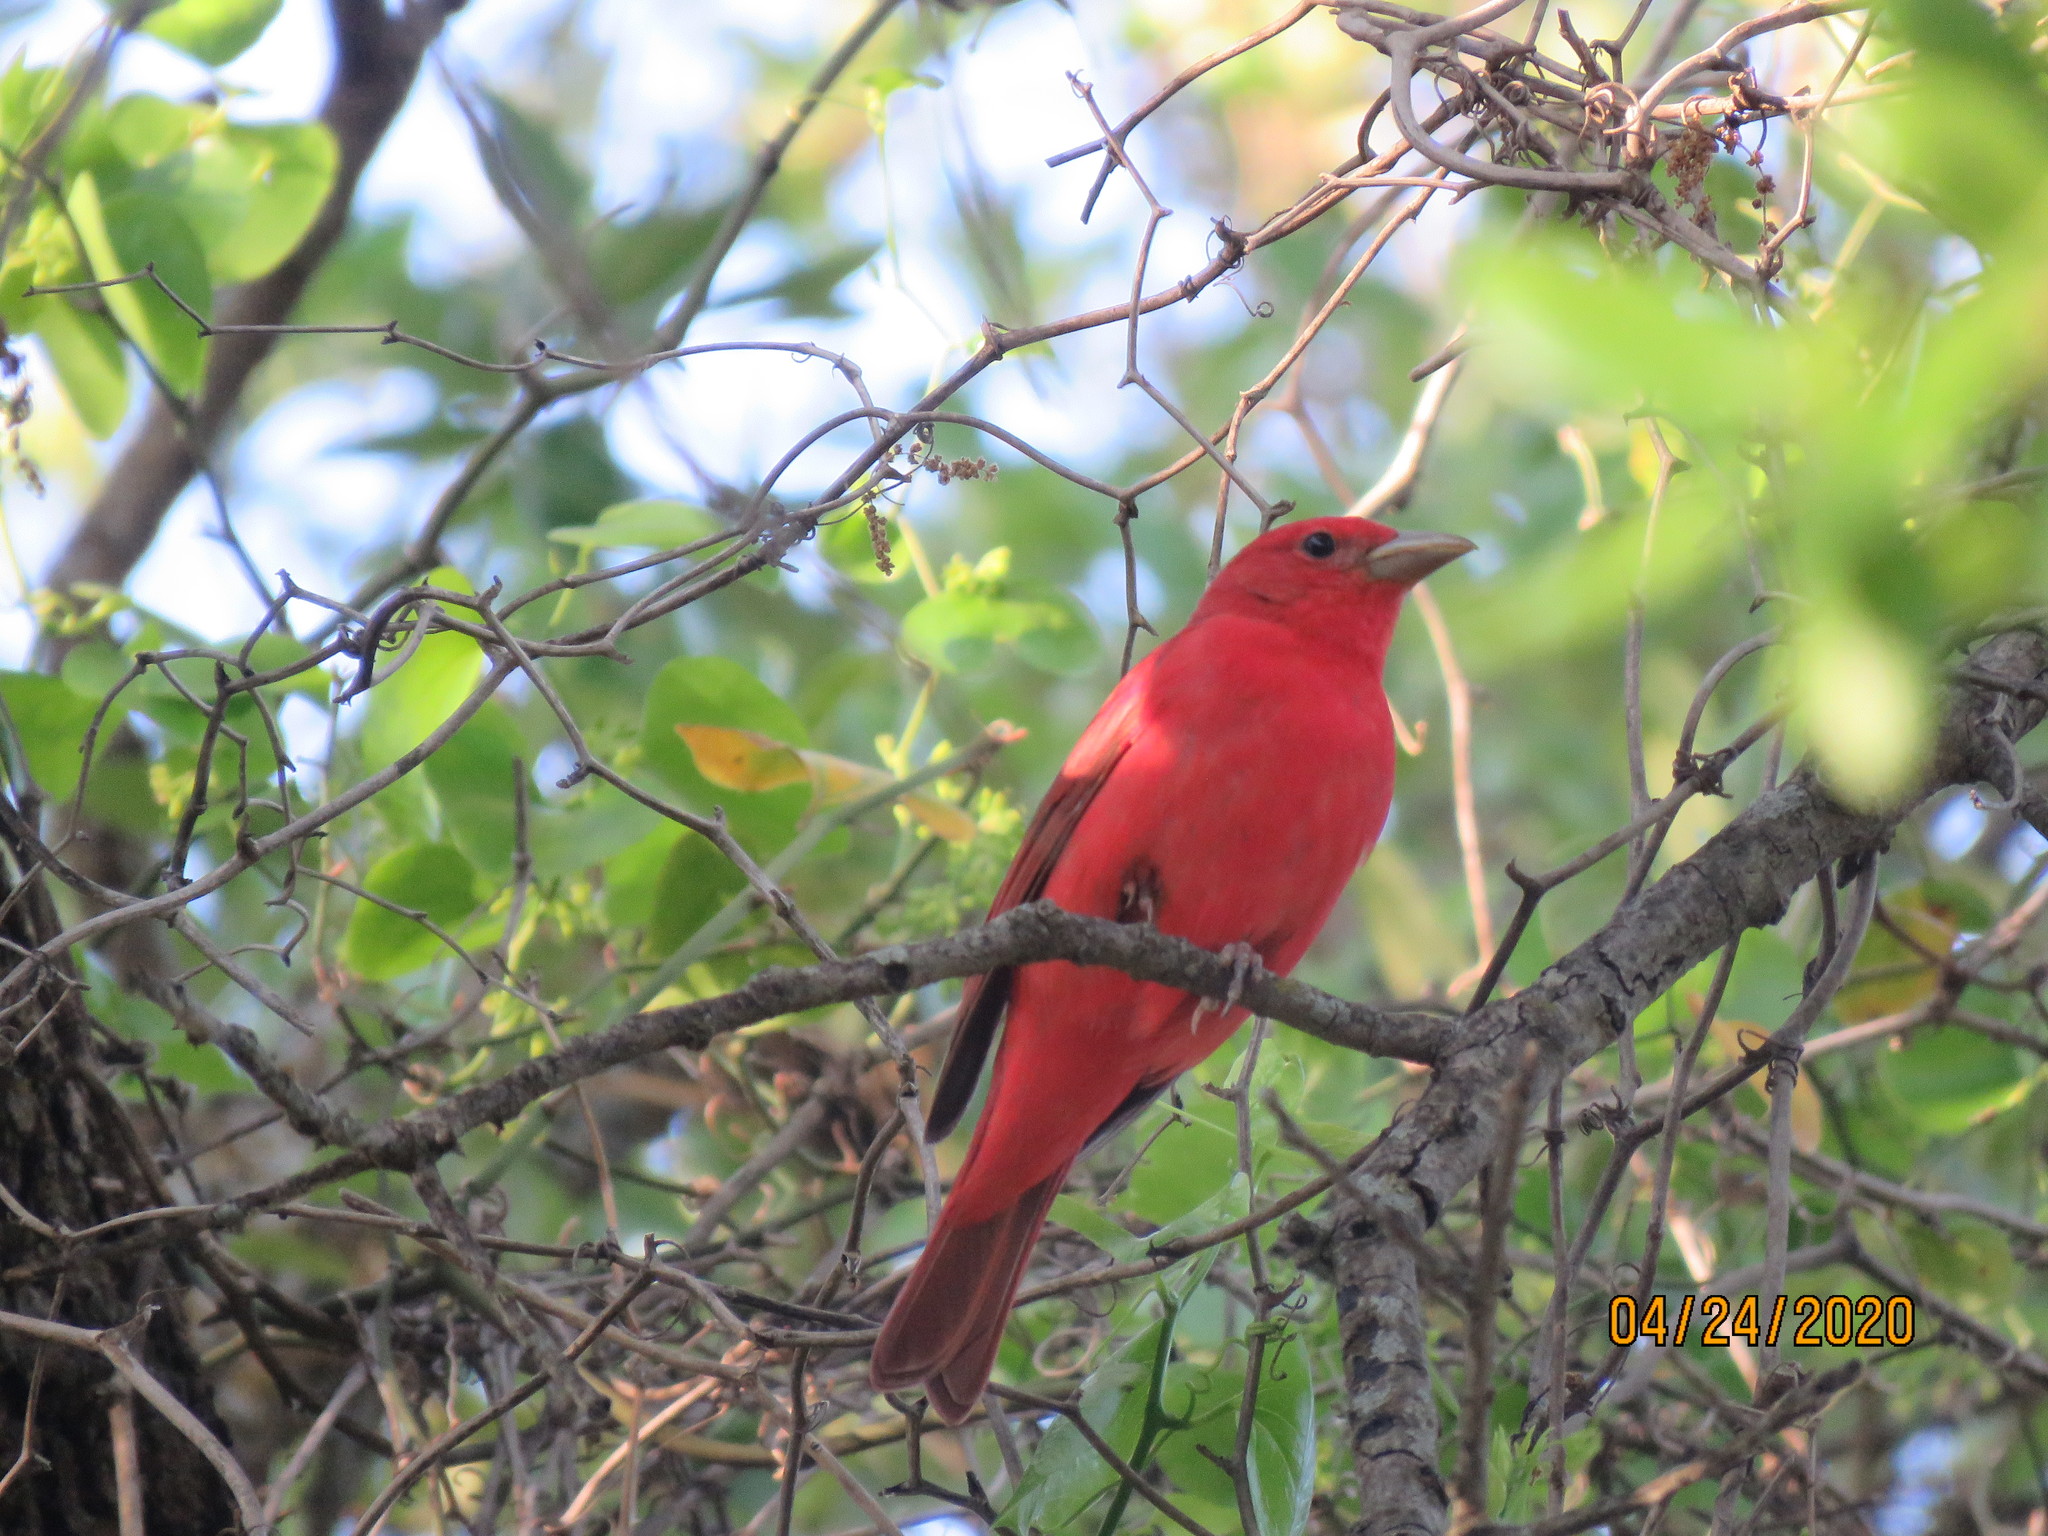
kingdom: Animalia
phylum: Chordata
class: Aves
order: Passeriformes
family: Cardinalidae
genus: Piranga
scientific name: Piranga rubra
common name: Summer tanager
